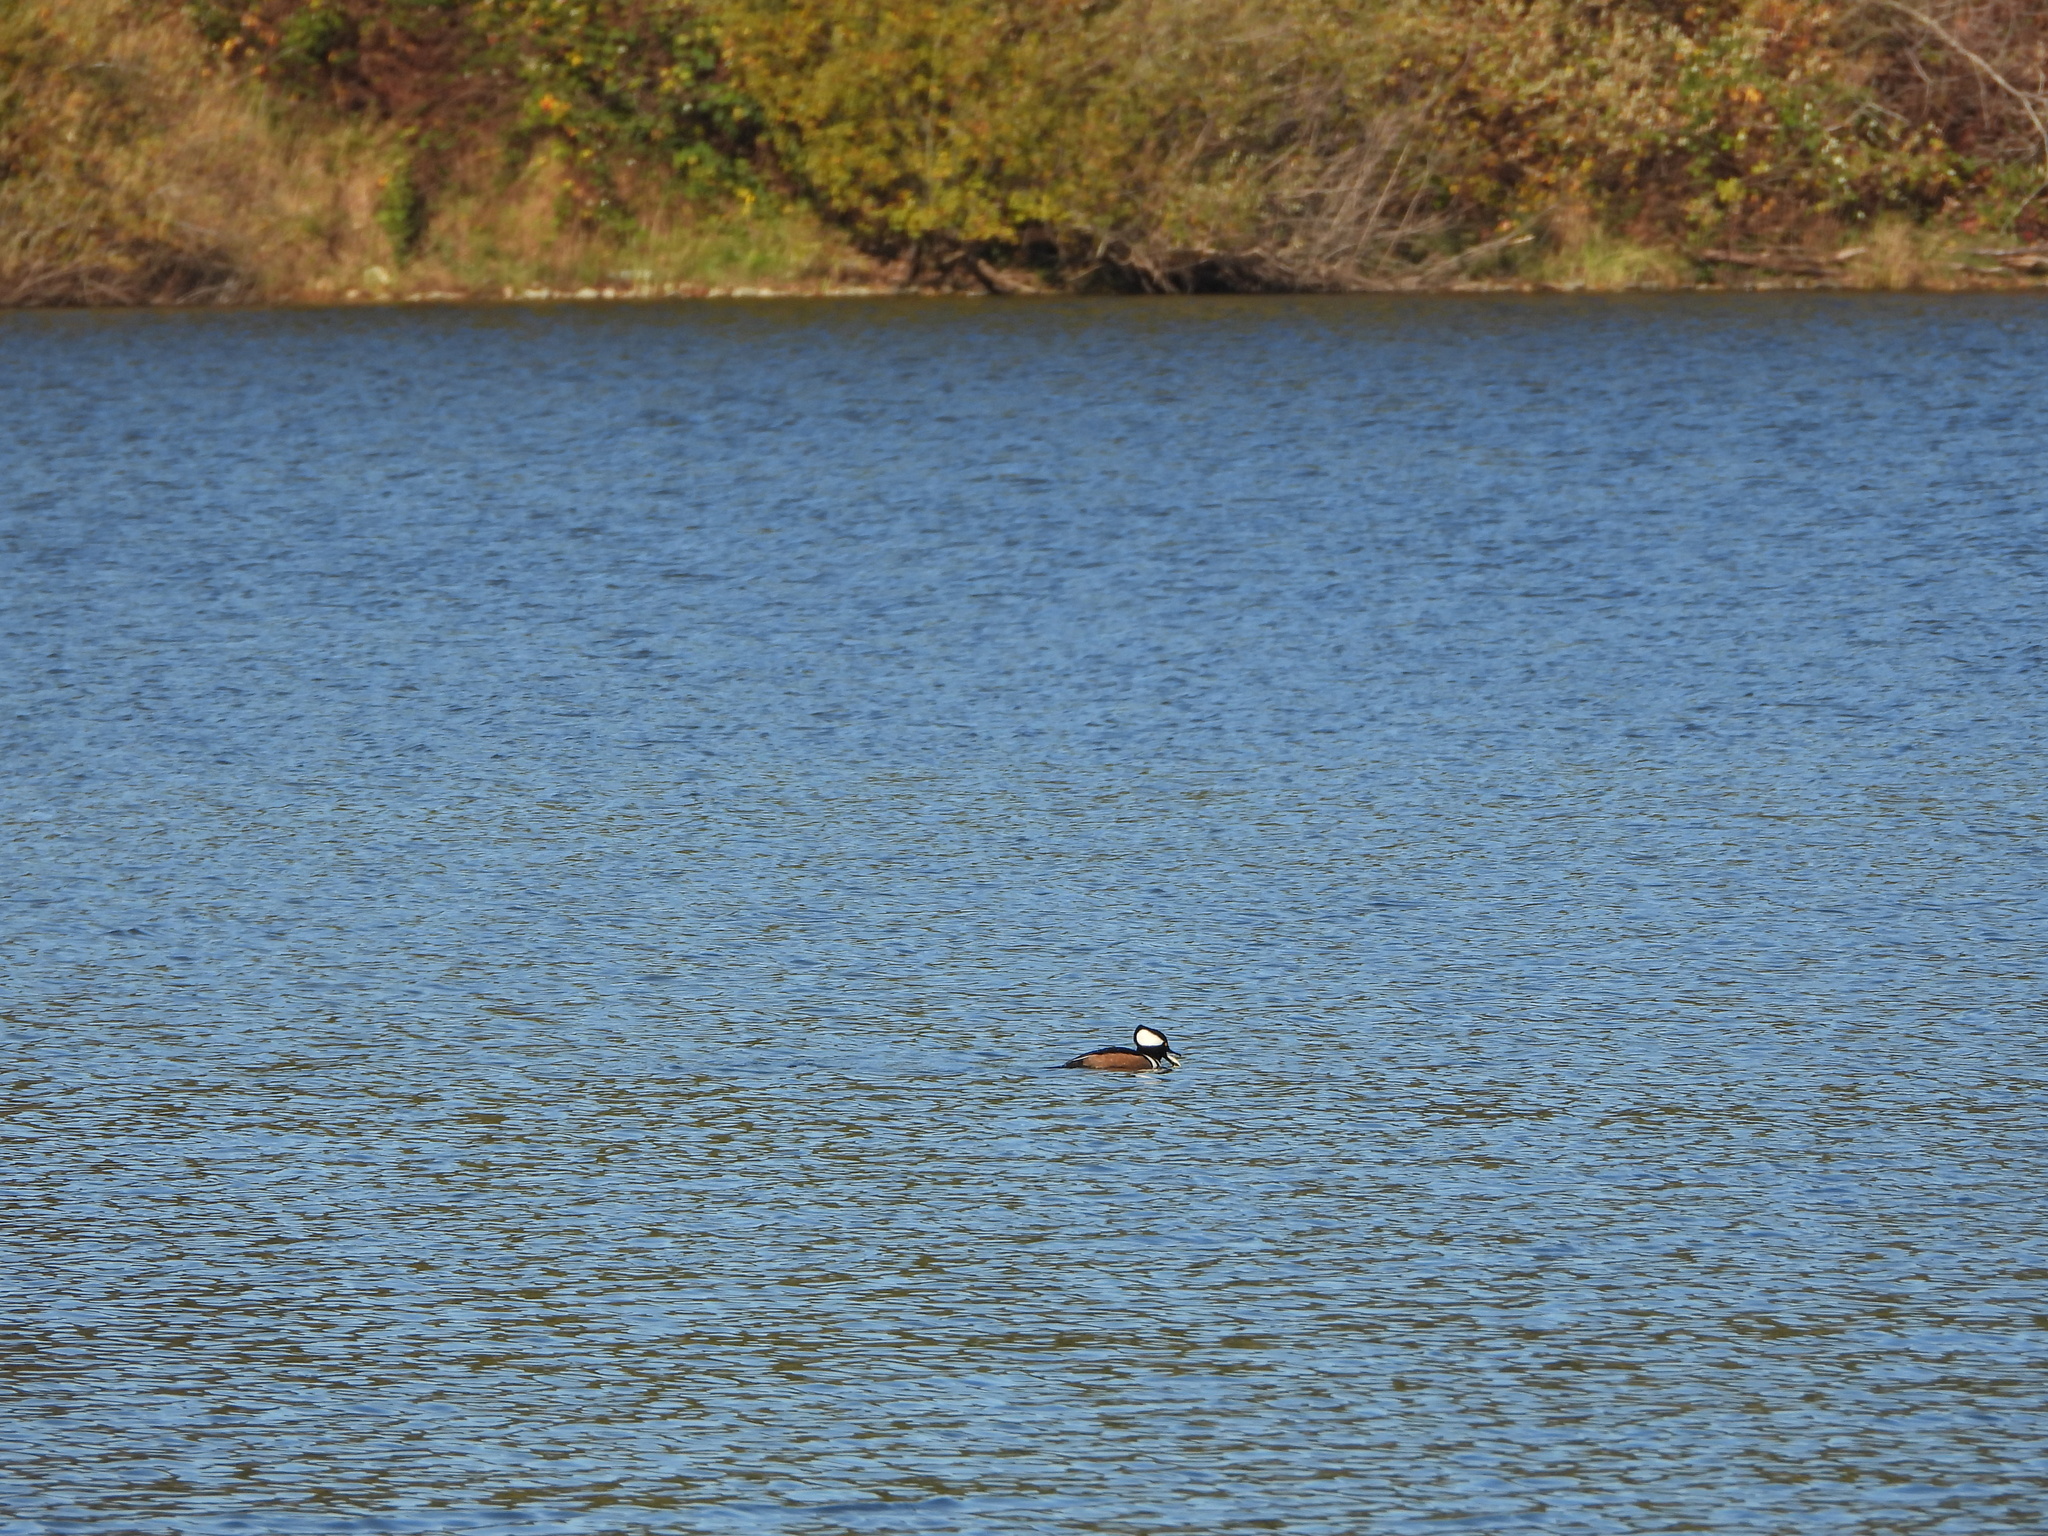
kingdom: Animalia
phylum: Chordata
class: Aves
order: Anseriformes
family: Anatidae
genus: Lophodytes
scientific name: Lophodytes cucullatus
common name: Hooded merganser
